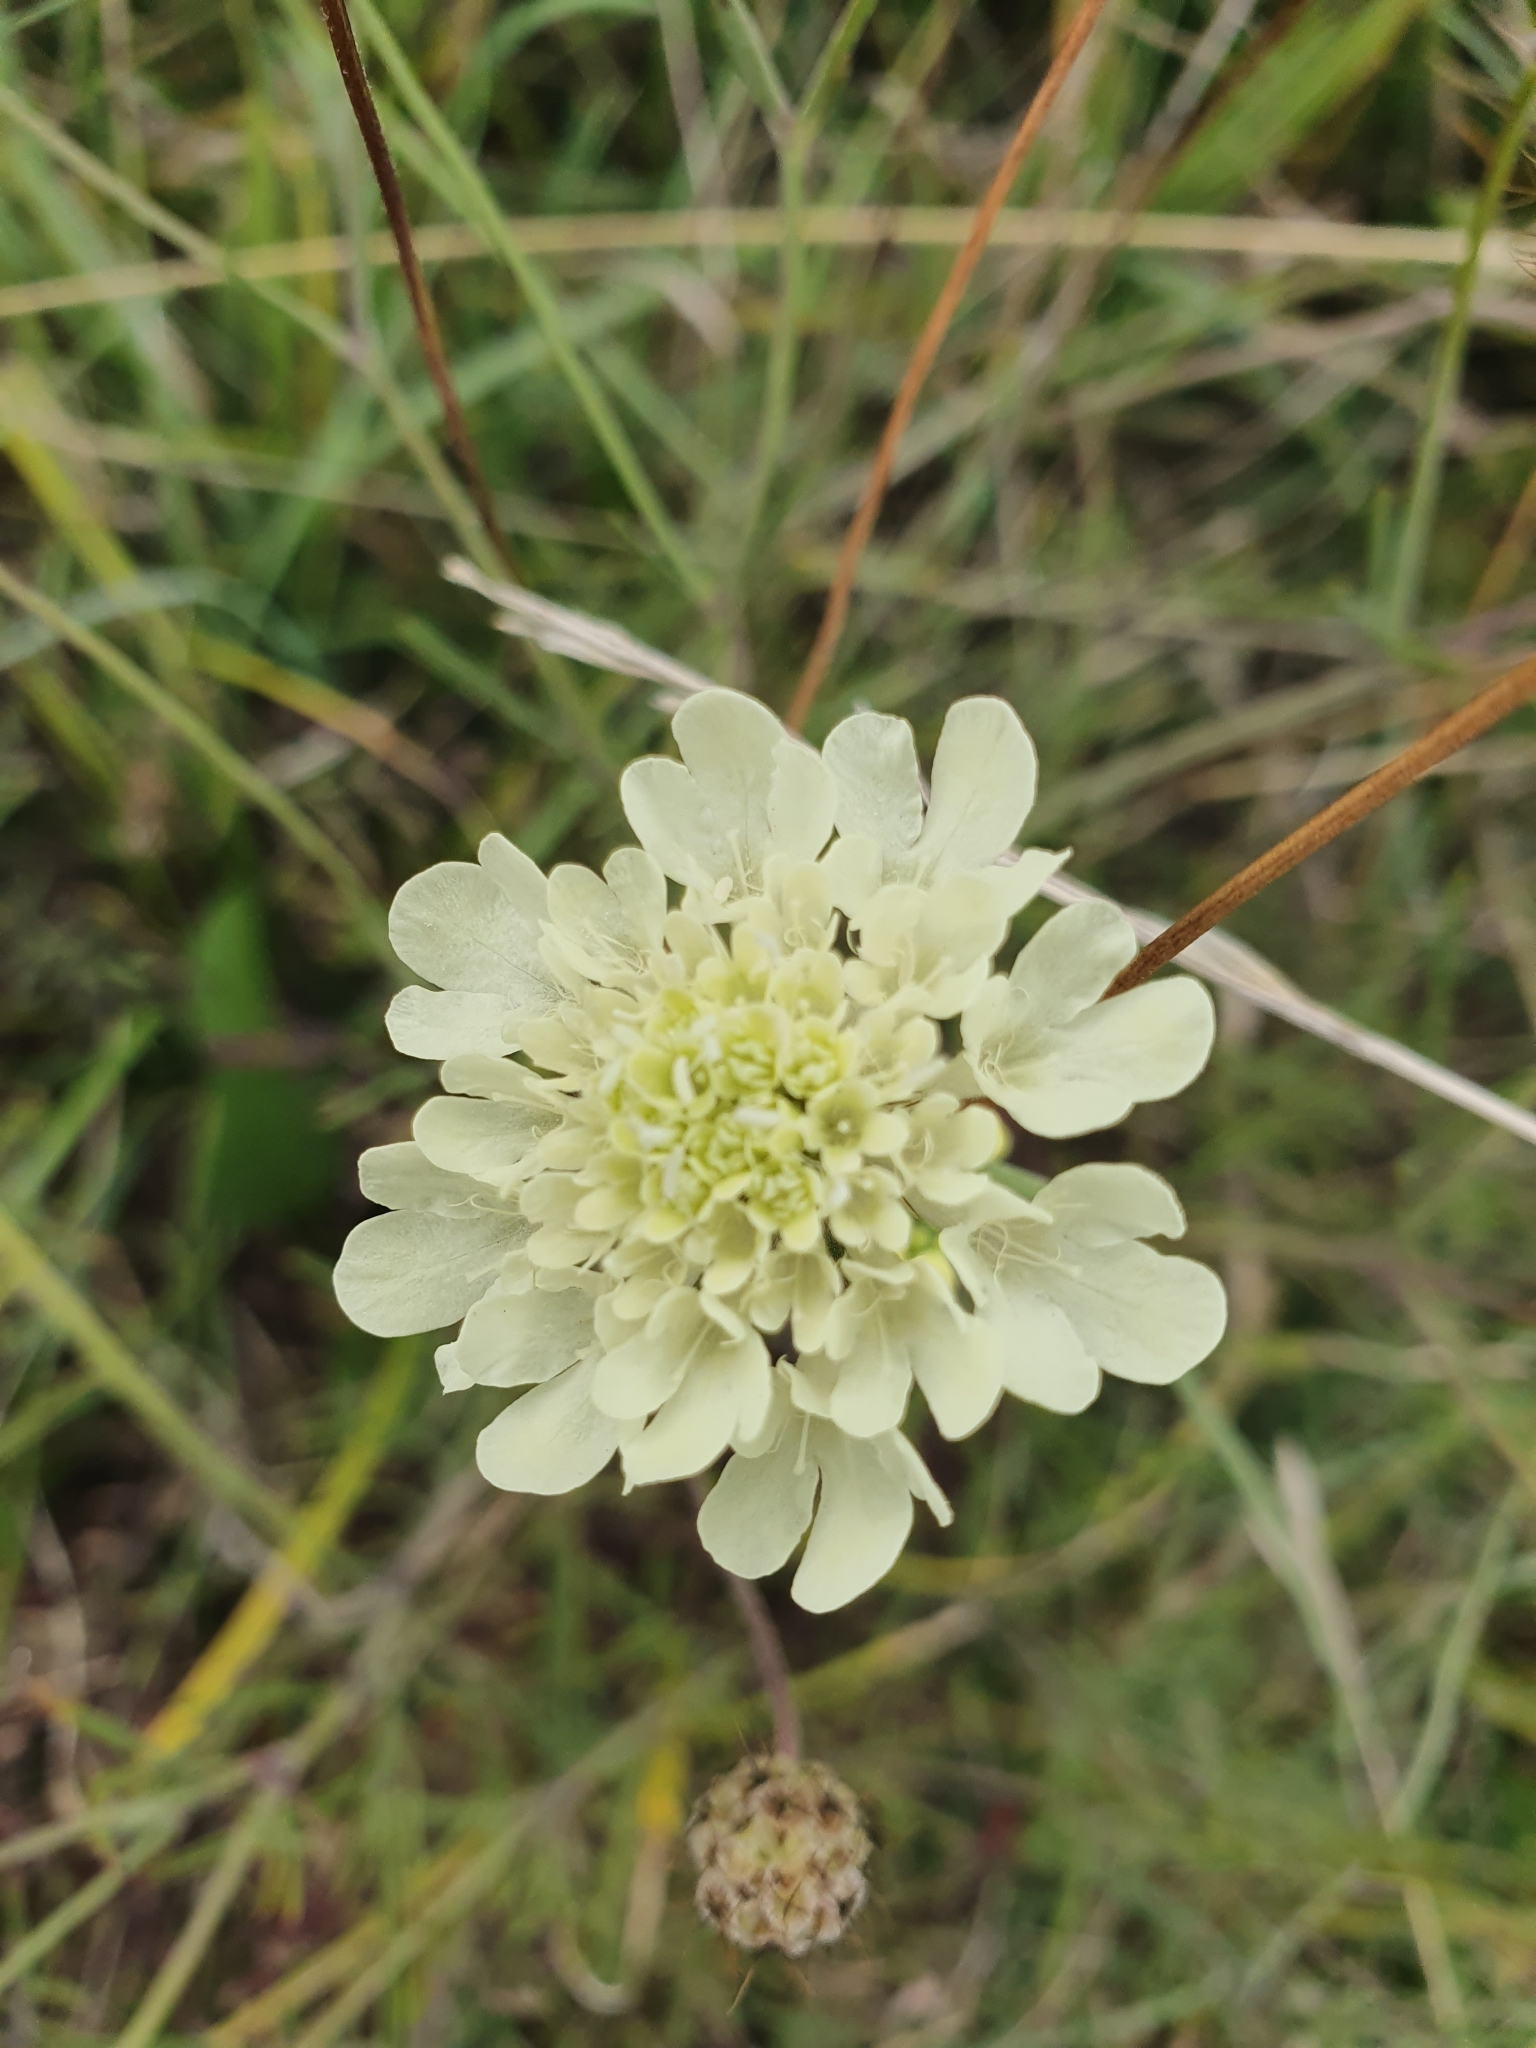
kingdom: Plantae
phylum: Tracheophyta
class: Magnoliopsida
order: Dipsacales
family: Caprifoliaceae
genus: Scabiosa
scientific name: Scabiosa ochroleuca
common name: Cream pincushions
